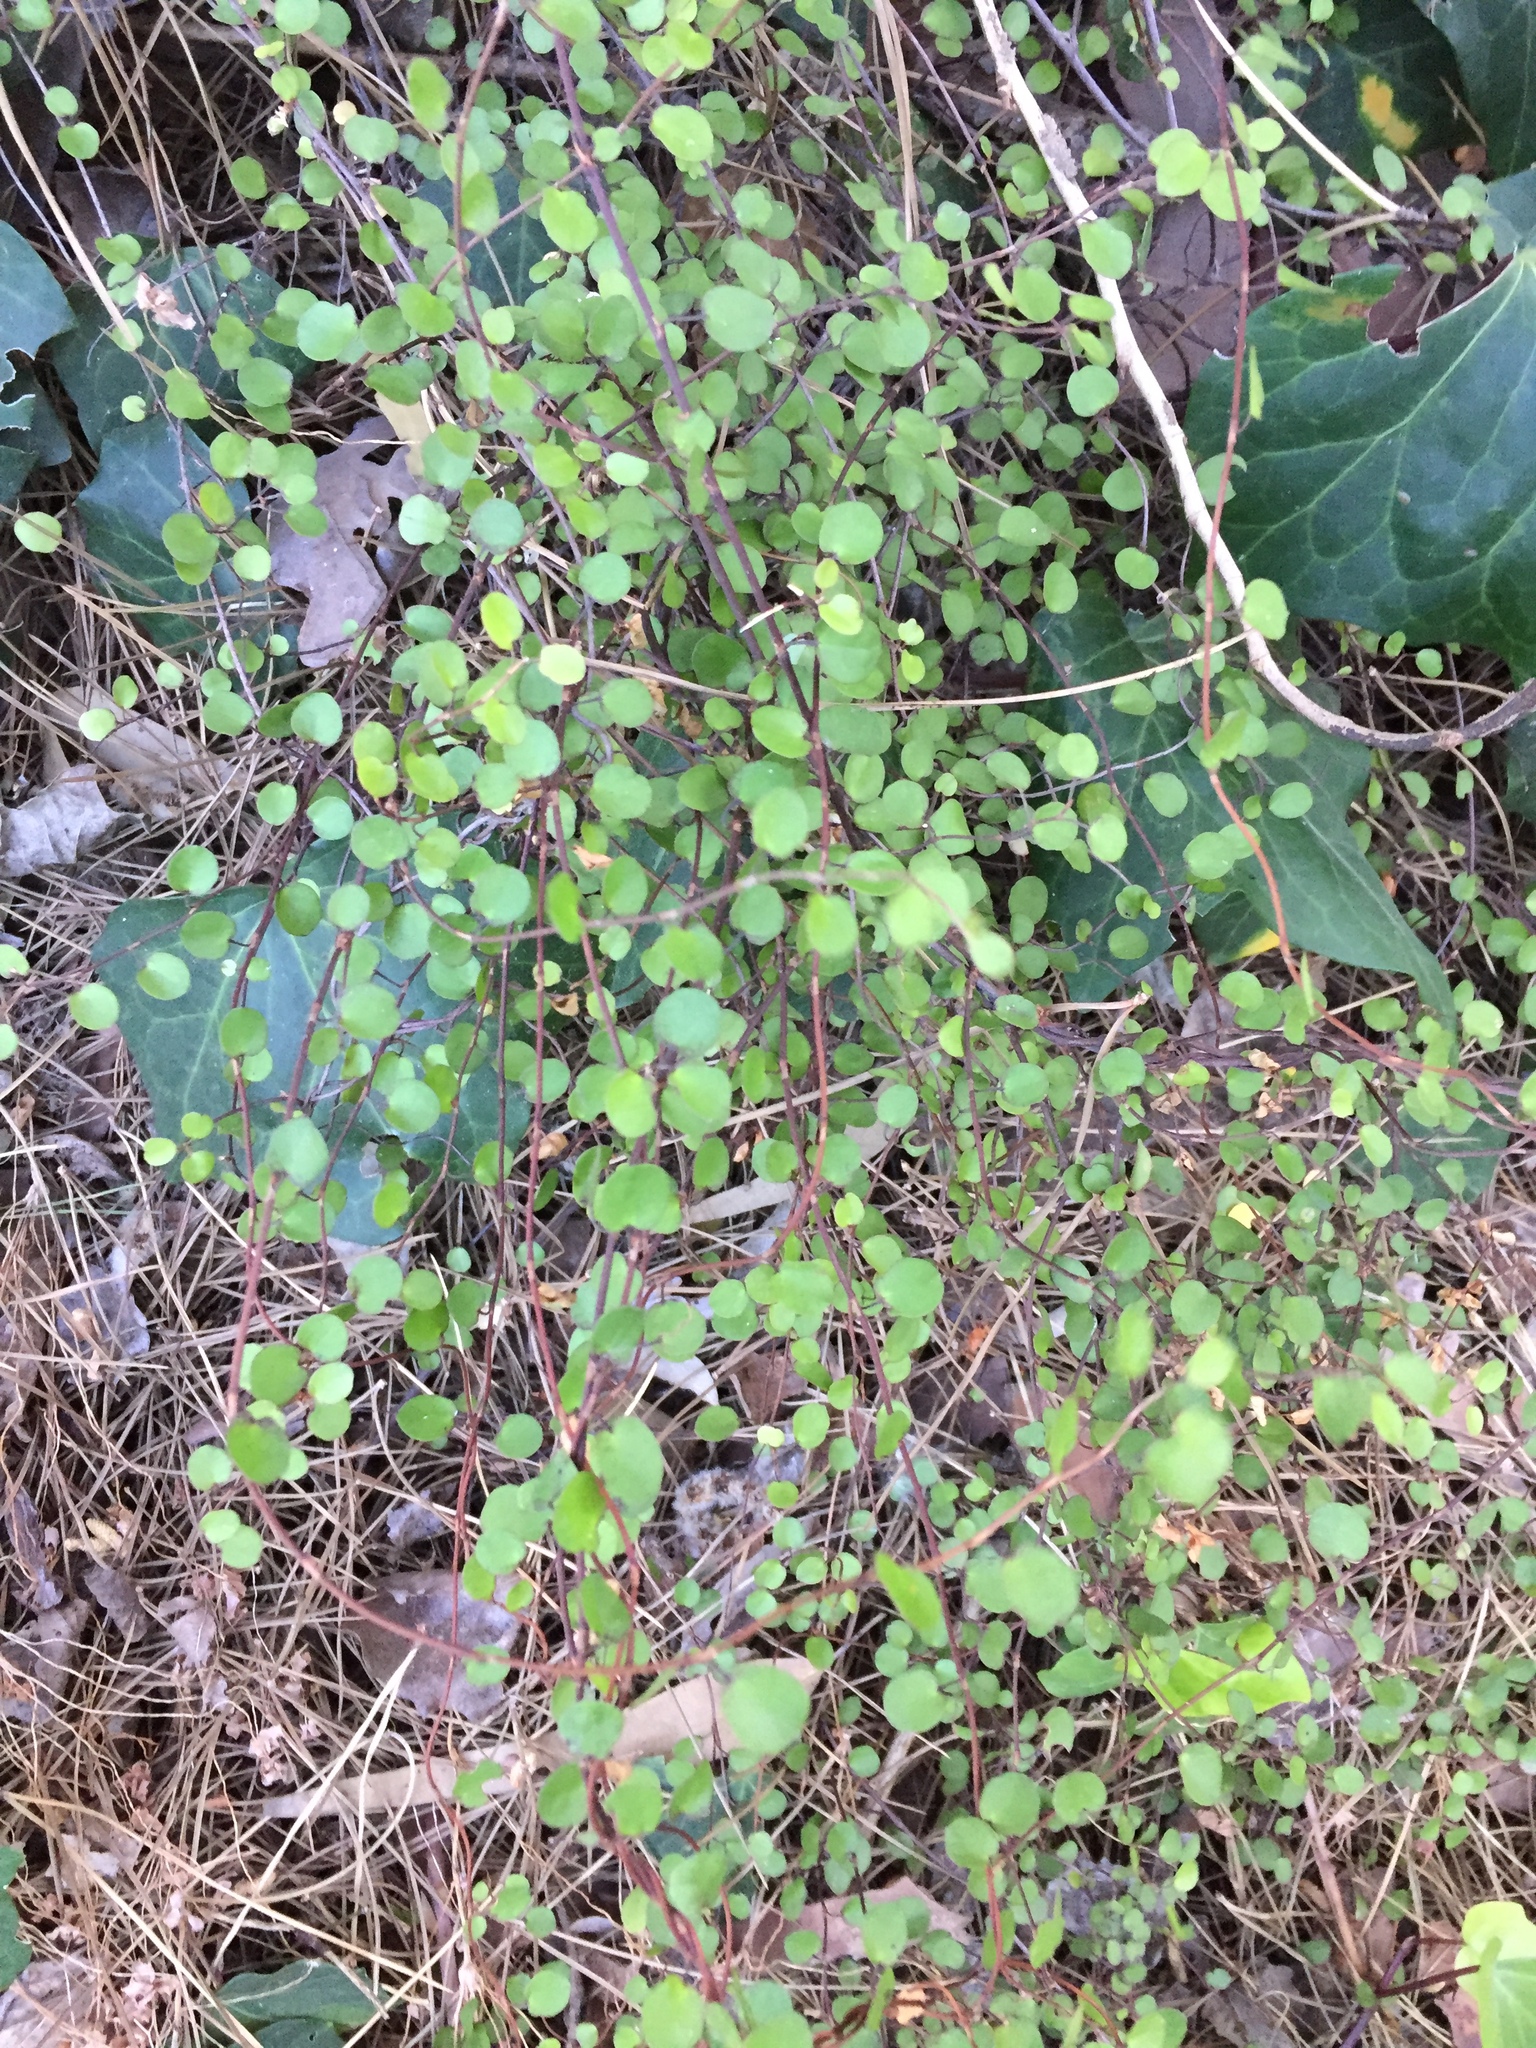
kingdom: Plantae
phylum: Tracheophyta
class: Magnoliopsida
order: Caryophyllales
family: Polygonaceae
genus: Muehlenbeckia
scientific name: Muehlenbeckia complexa
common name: Wireplant
